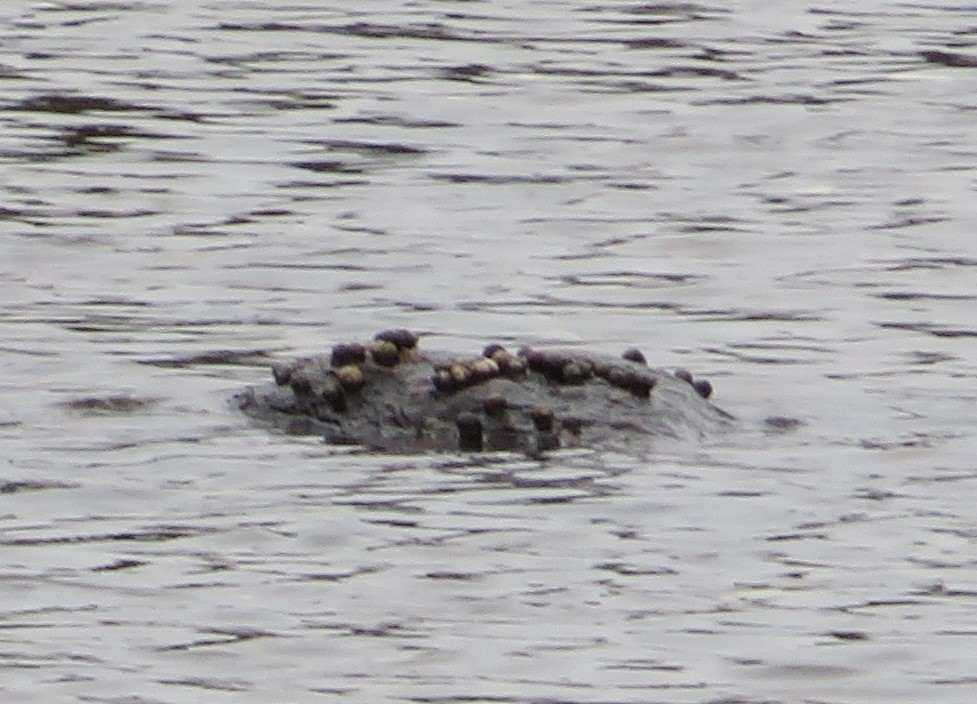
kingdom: Animalia
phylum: Mollusca
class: Gastropoda
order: Littorinimorpha
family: Littorinidae
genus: Littorina
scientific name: Littorina littorea
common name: Common periwinkle
